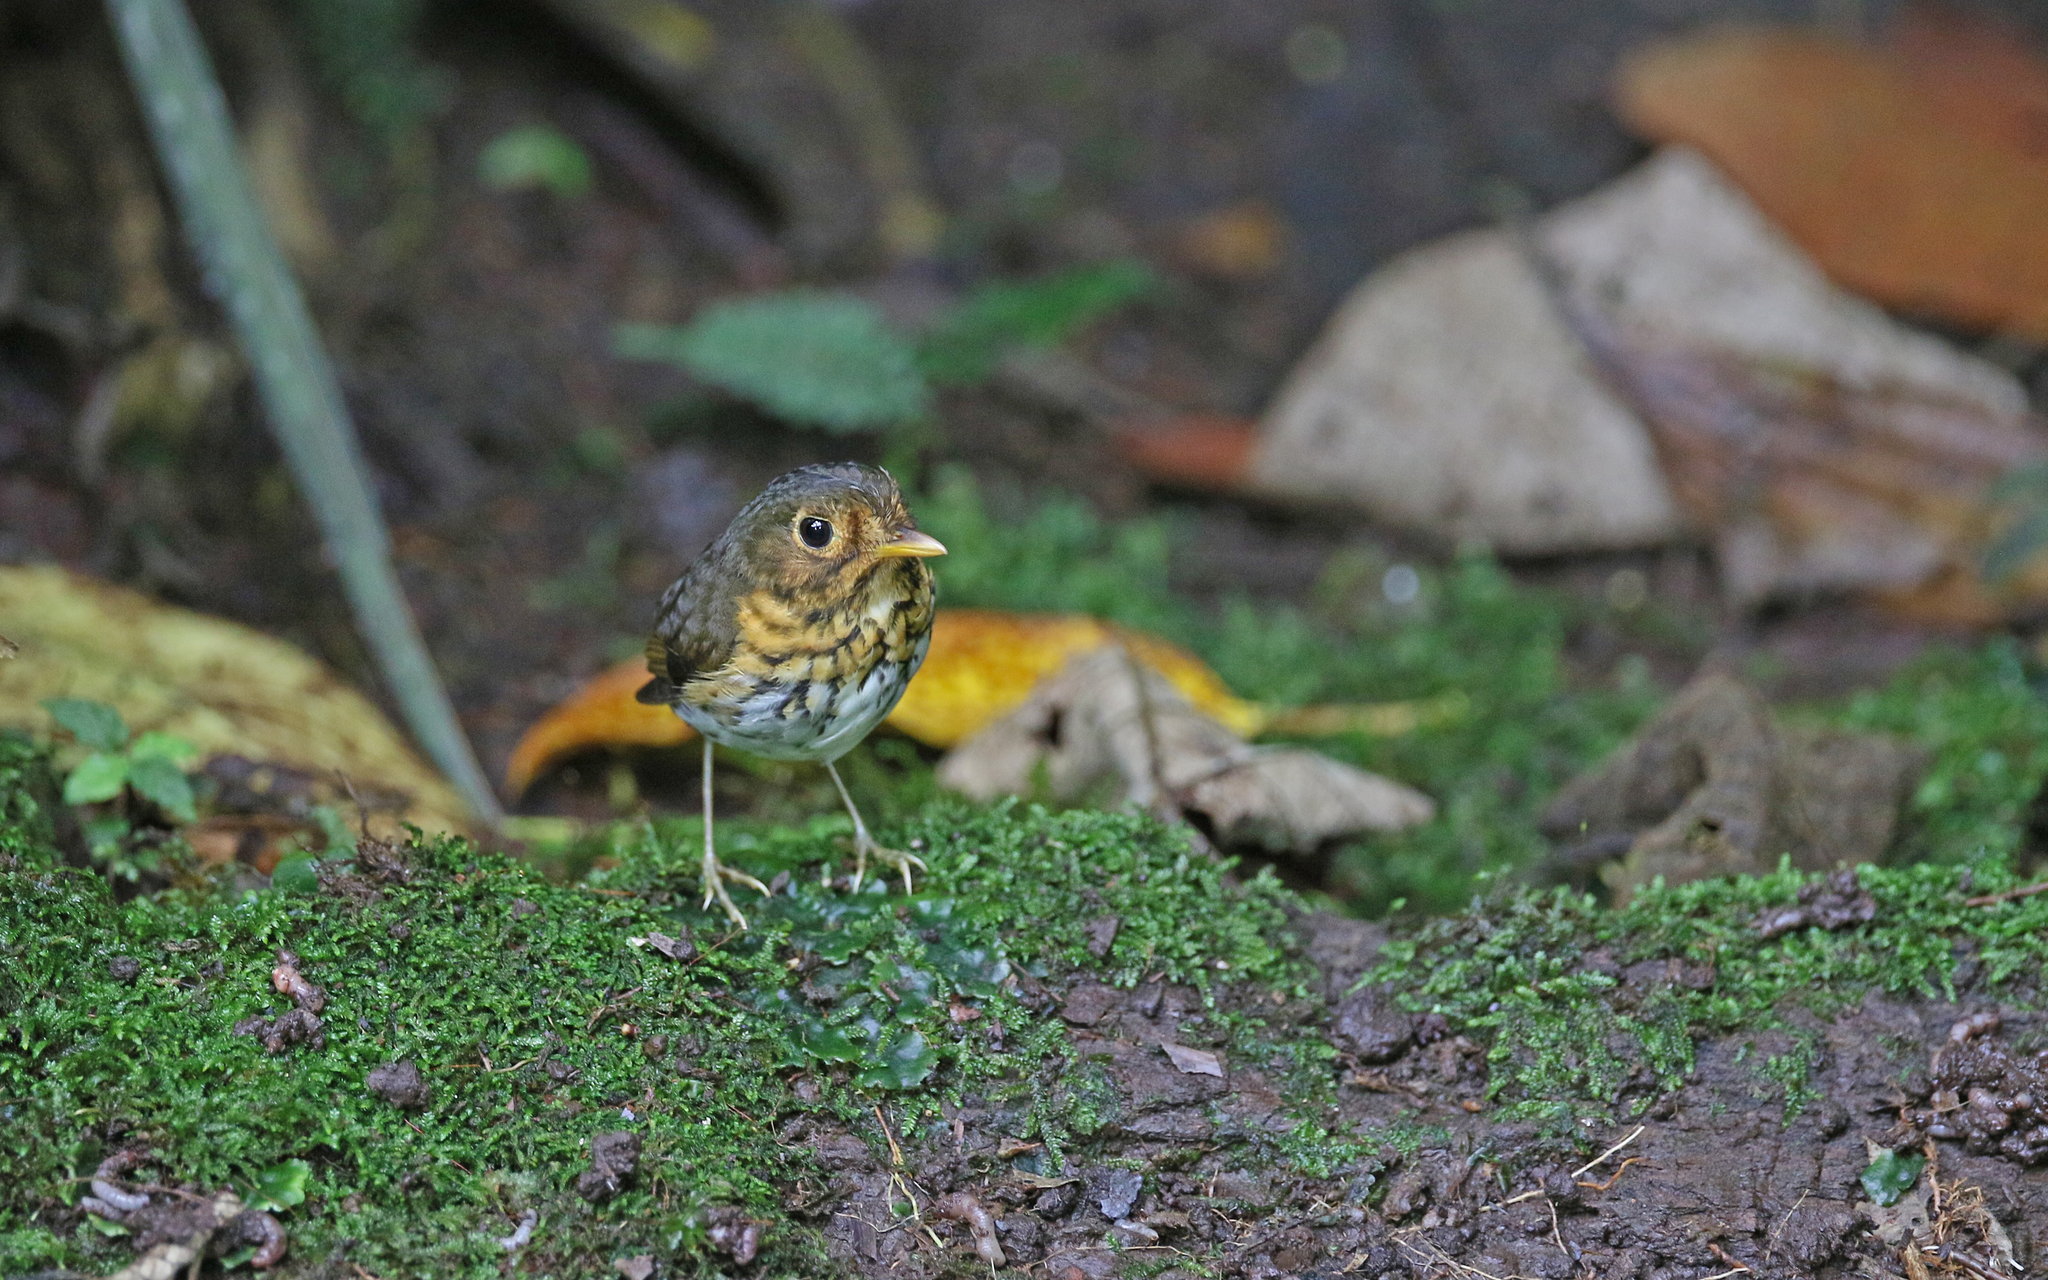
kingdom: Animalia
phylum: Chordata
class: Aves
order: Passeriformes
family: Grallariidae
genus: Grallaricula
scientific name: Grallaricula flavirostris
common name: Ochre-breasted antpitta
